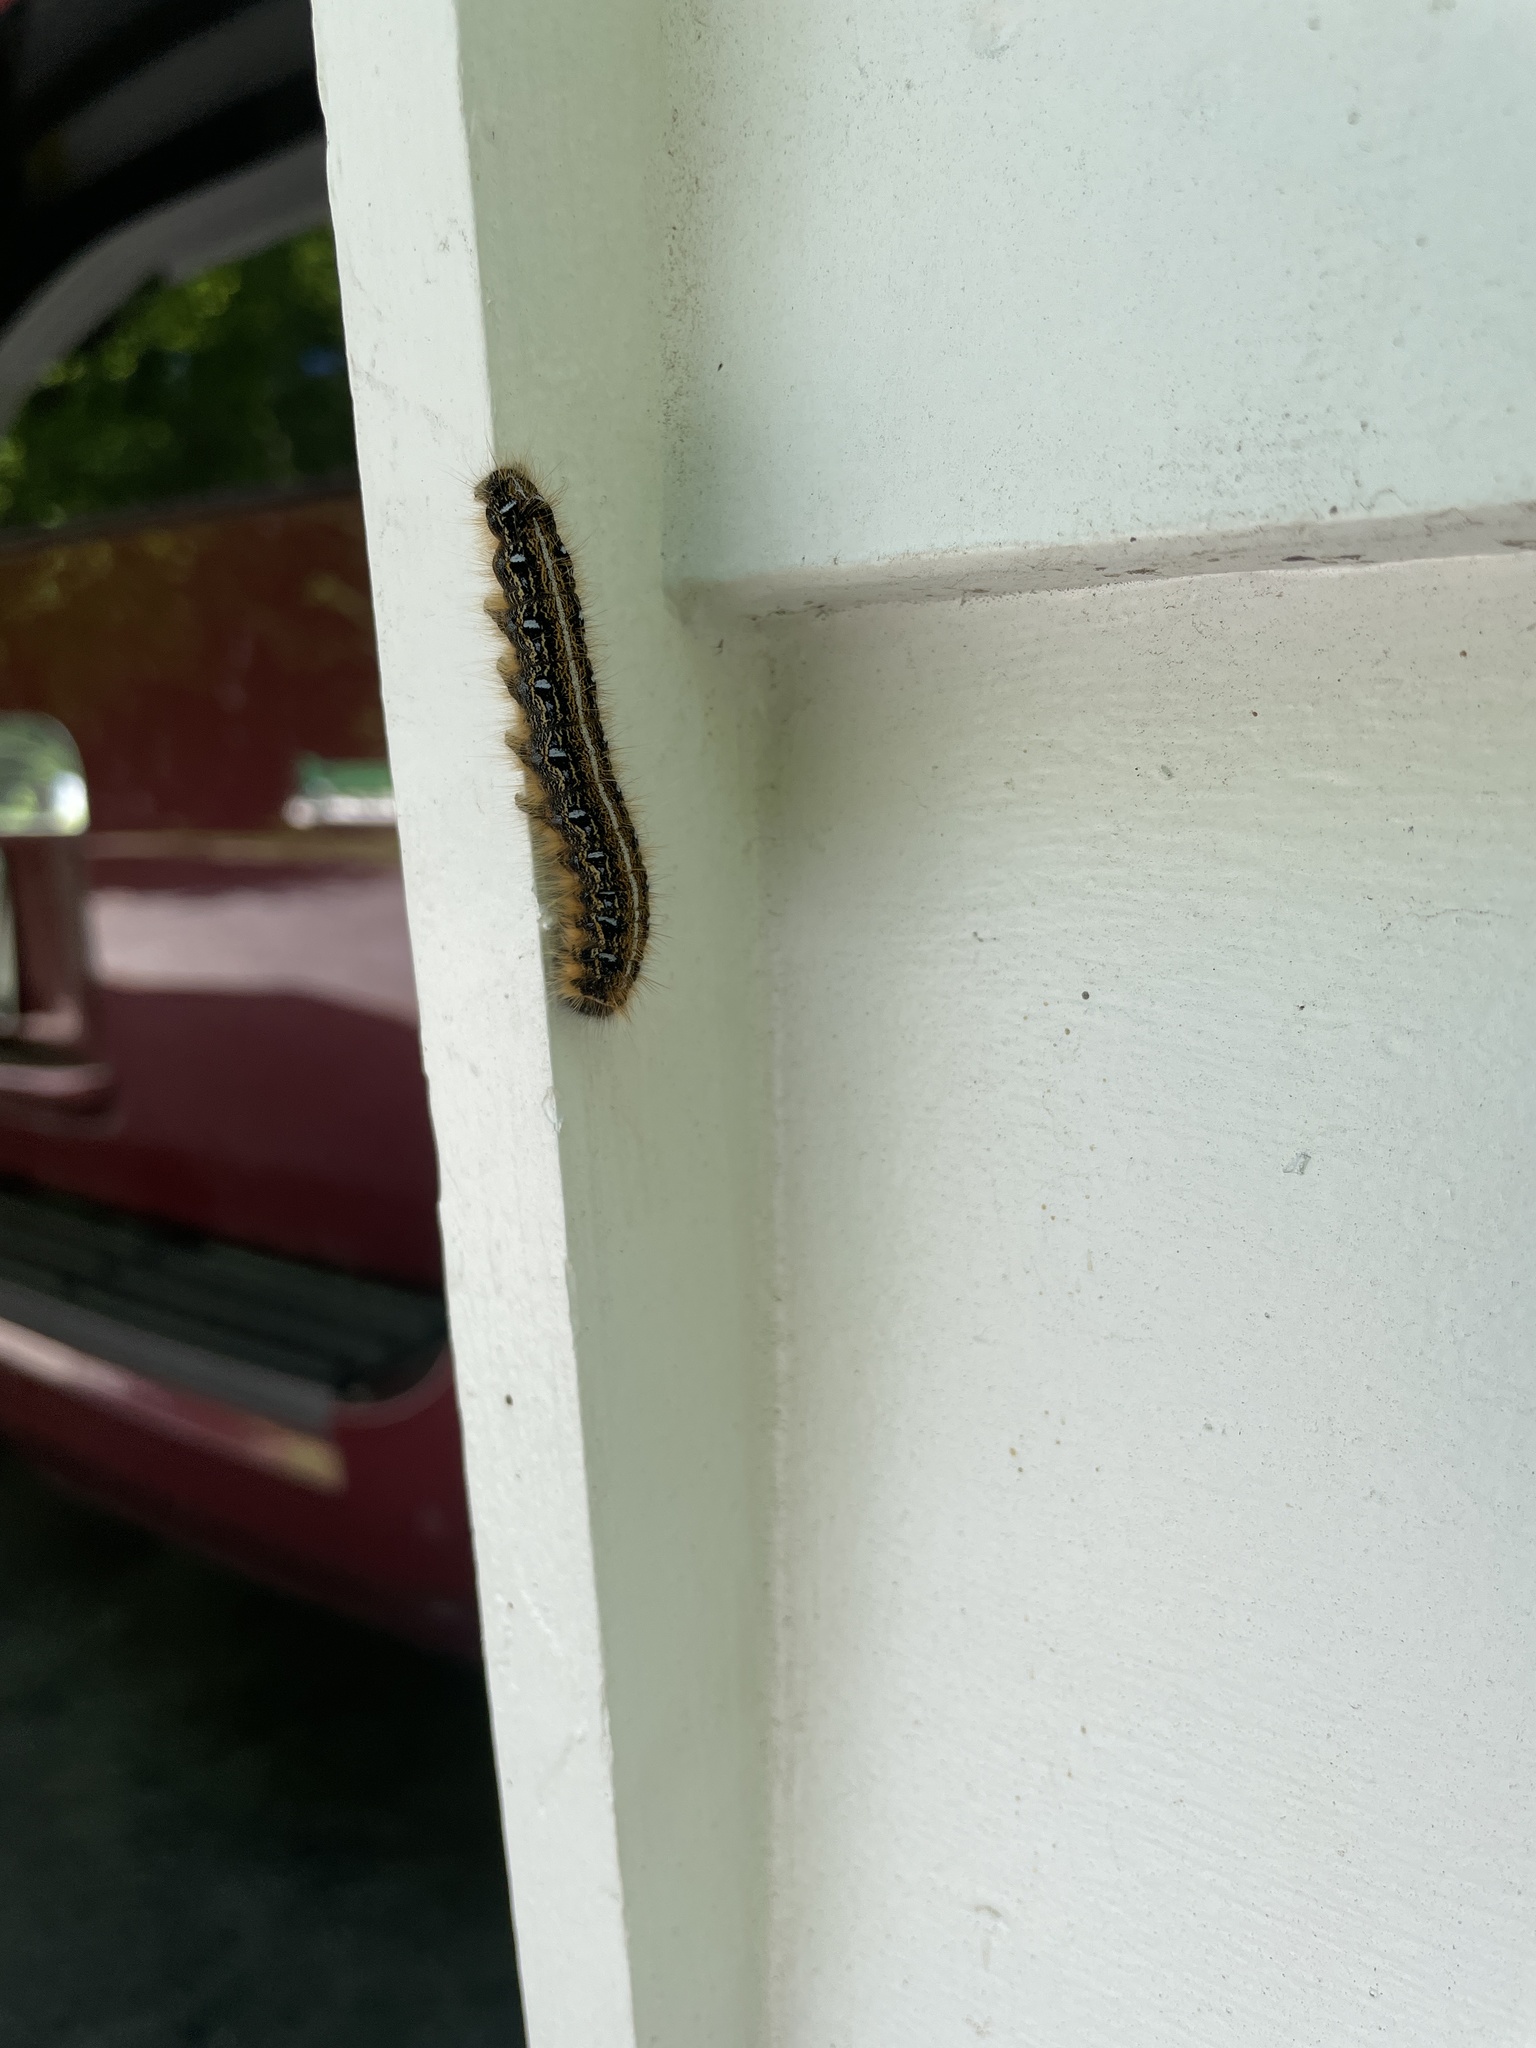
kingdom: Animalia
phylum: Arthropoda
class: Insecta
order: Lepidoptera
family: Lasiocampidae
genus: Malacosoma
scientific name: Malacosoma americana
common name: Eastern tent caterpillar moth
